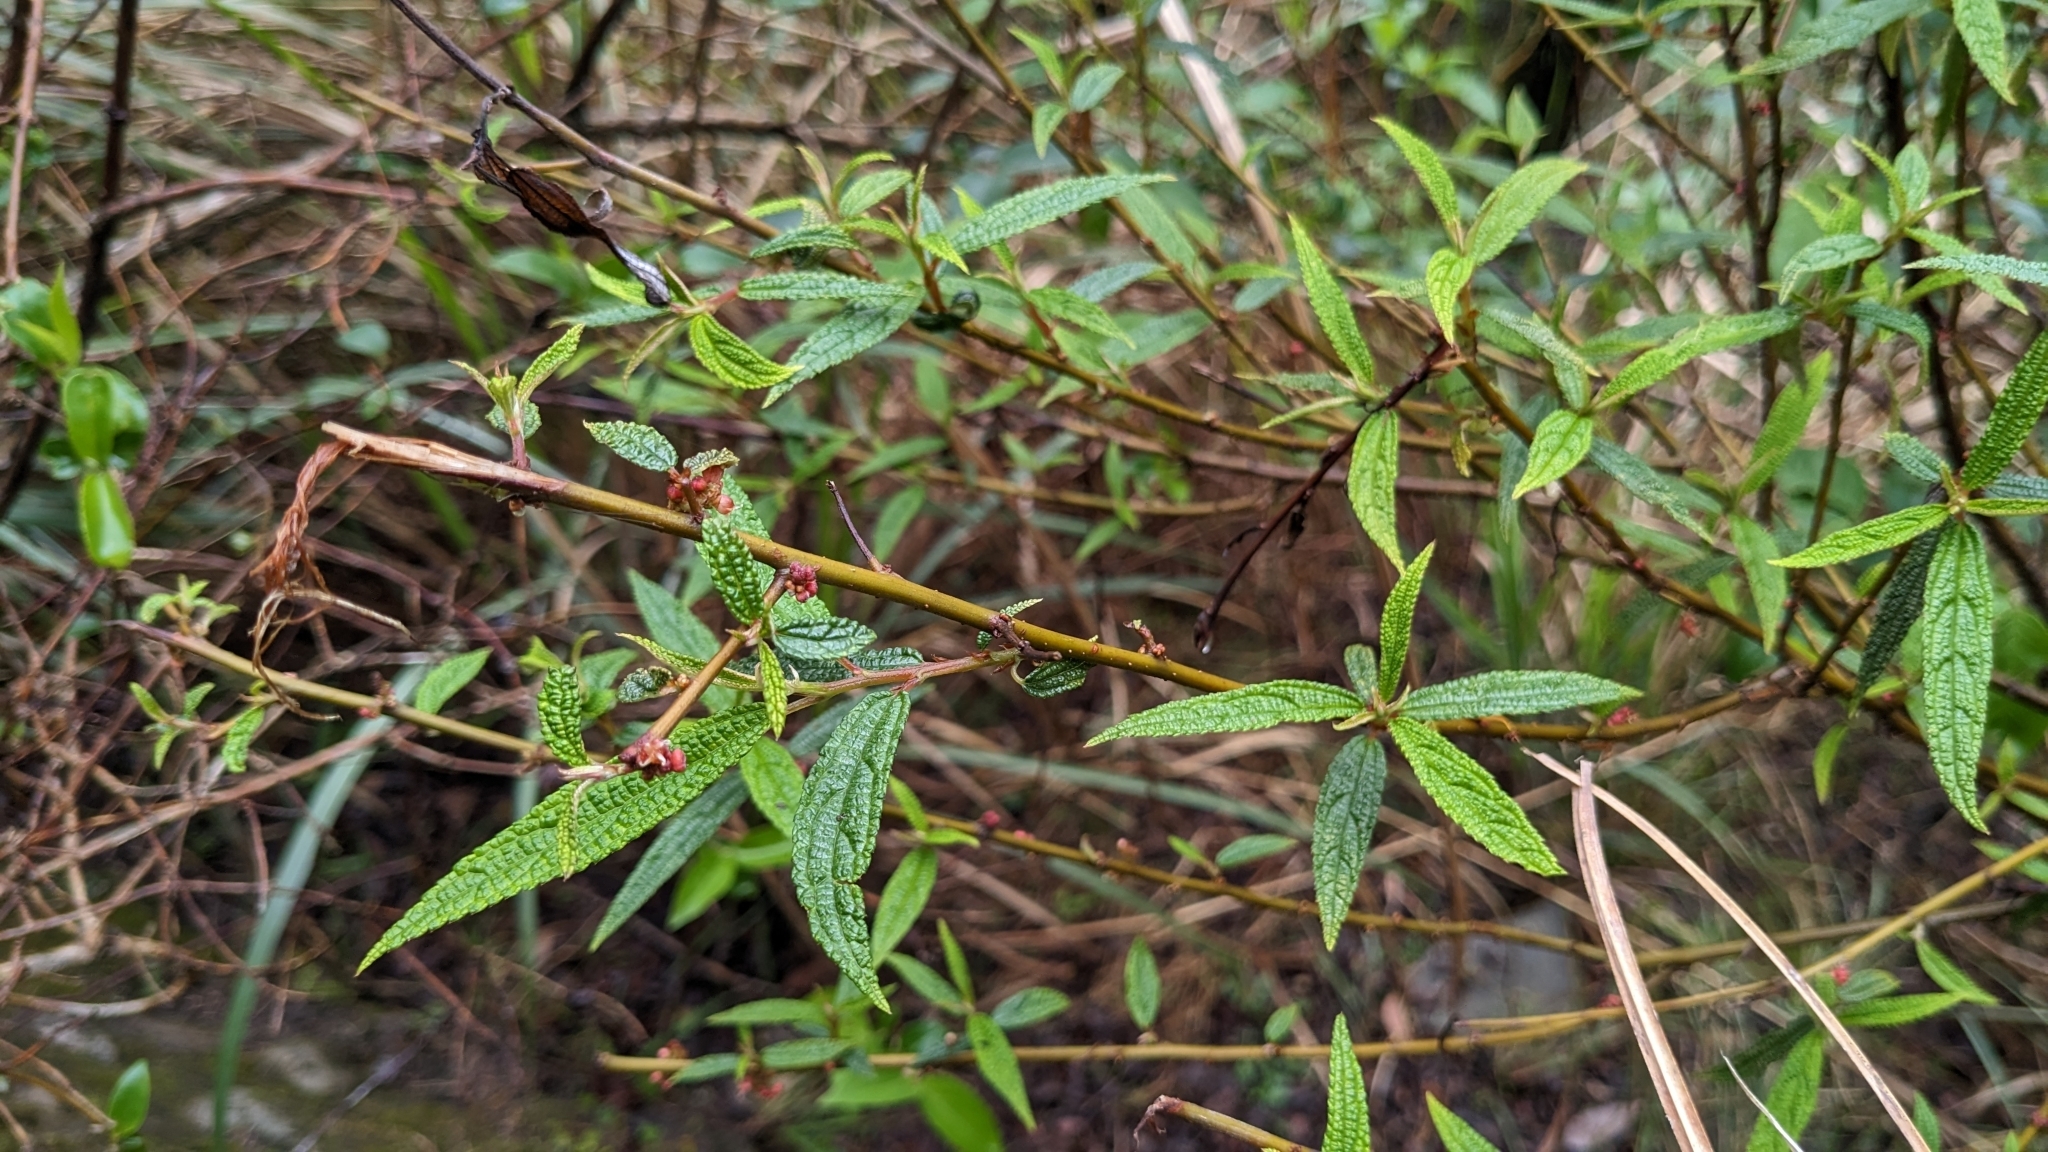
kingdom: Plantae
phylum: Tracheophyta
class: Magnoliopsida
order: Rosales
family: Urticaceae
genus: Debregeasia
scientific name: Debregeasia orientalis
